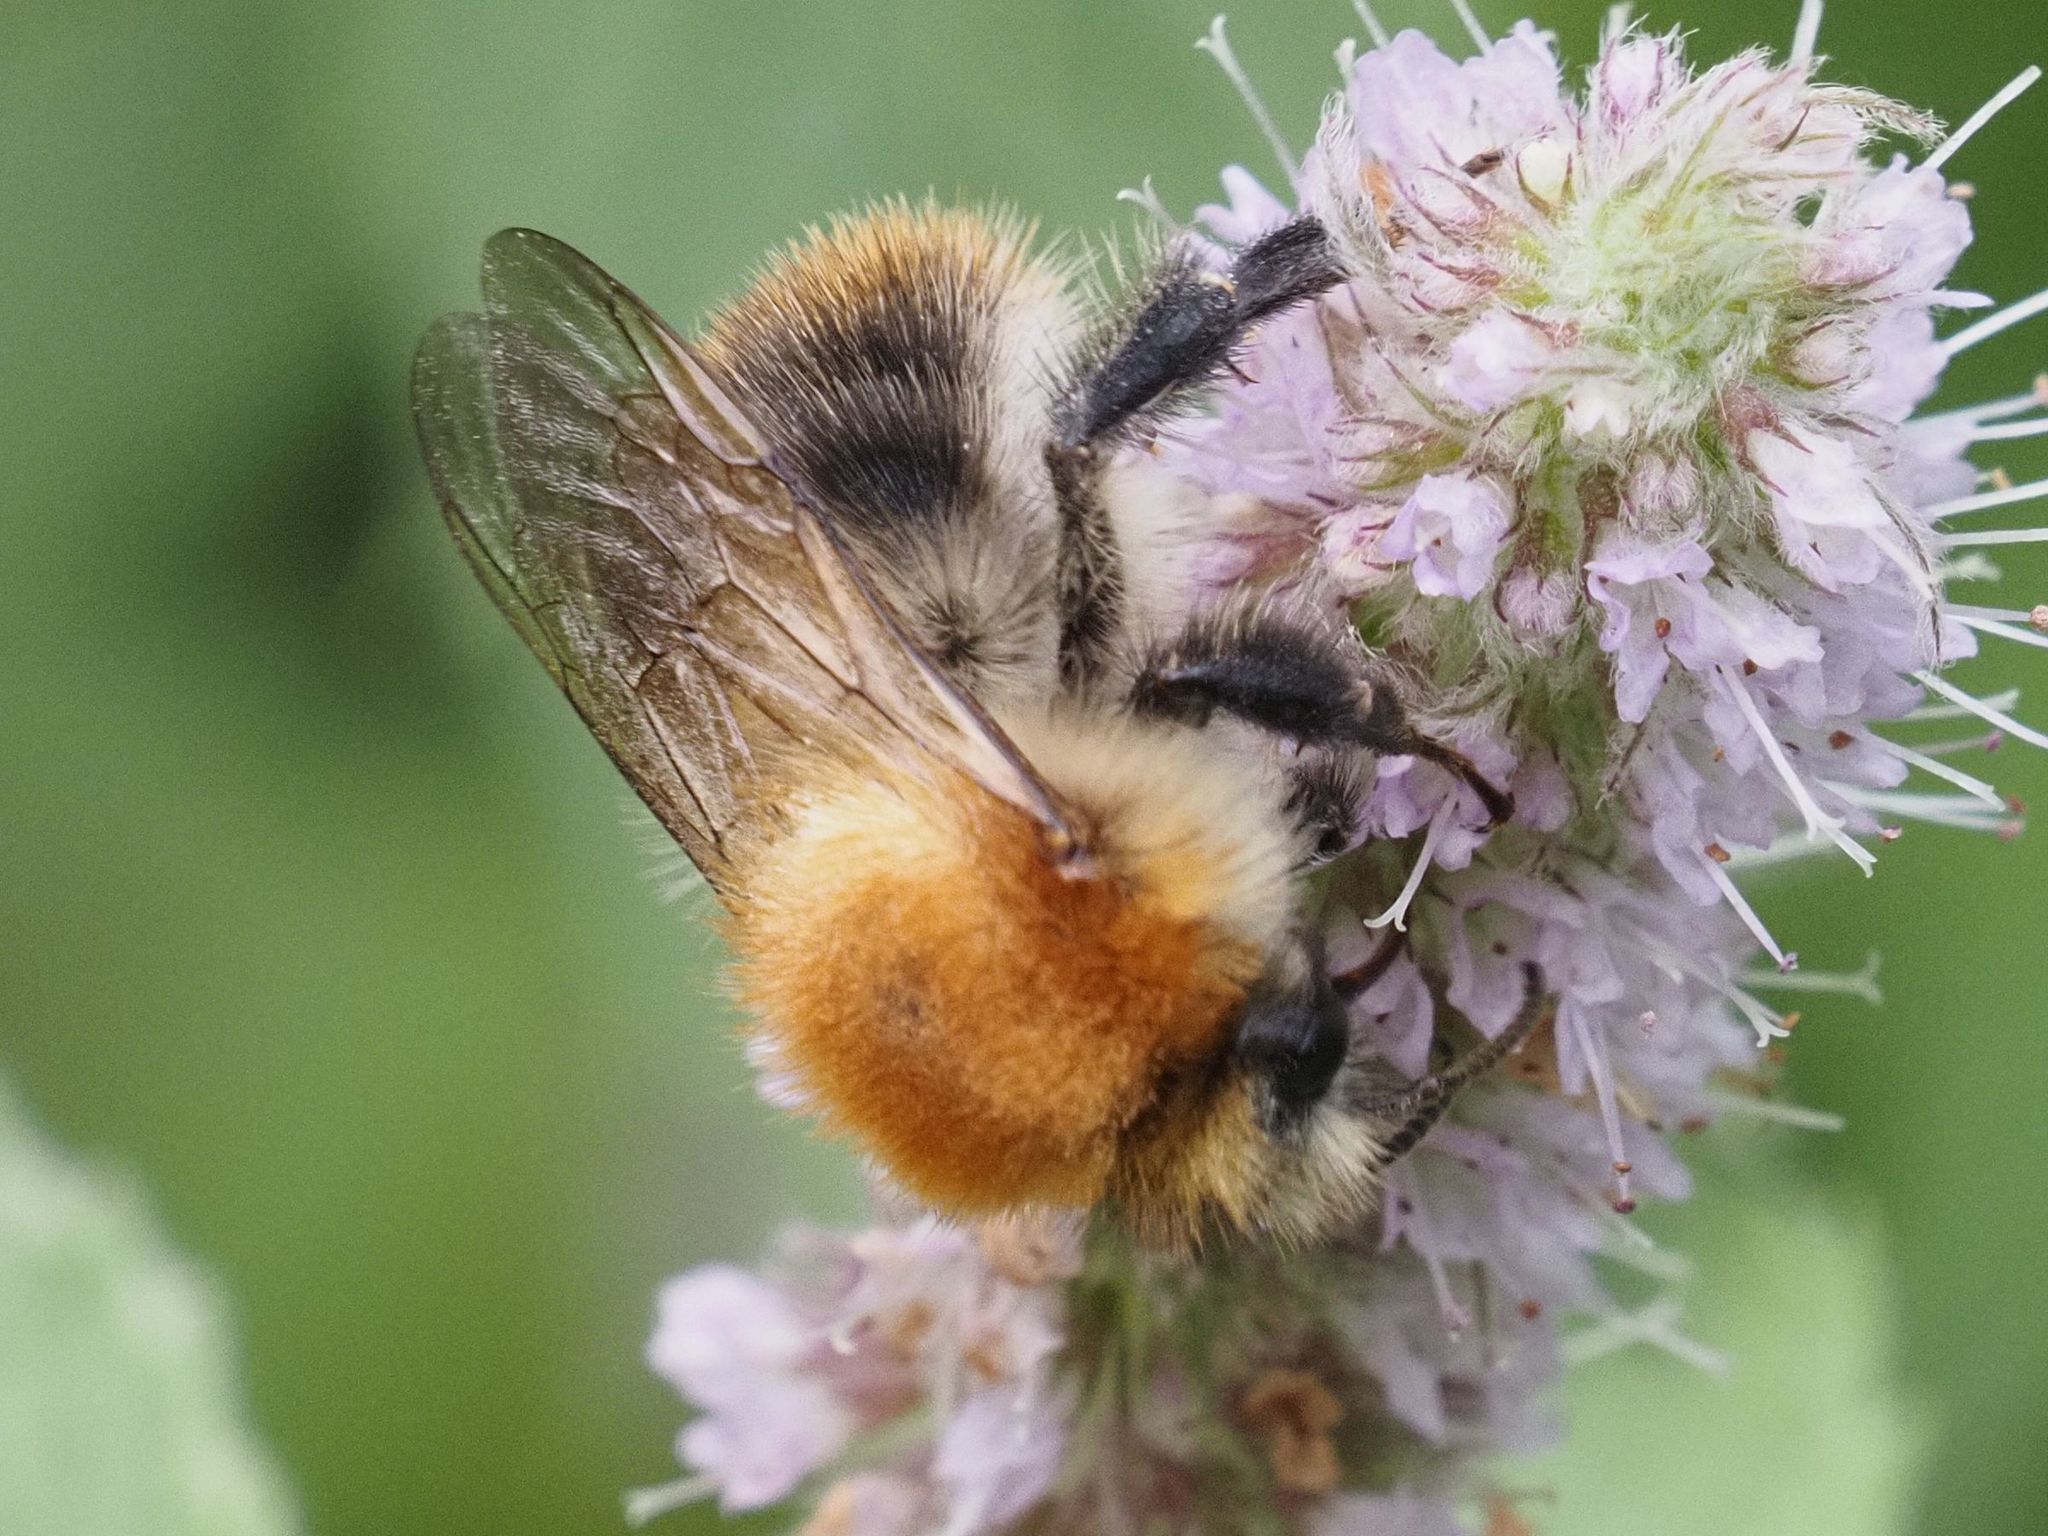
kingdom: Animalia
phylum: Arthropoda
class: Insecta
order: Hymenoptera
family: Apidae
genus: Bombus
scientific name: Bombus pascuorum
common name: Common carder bee
